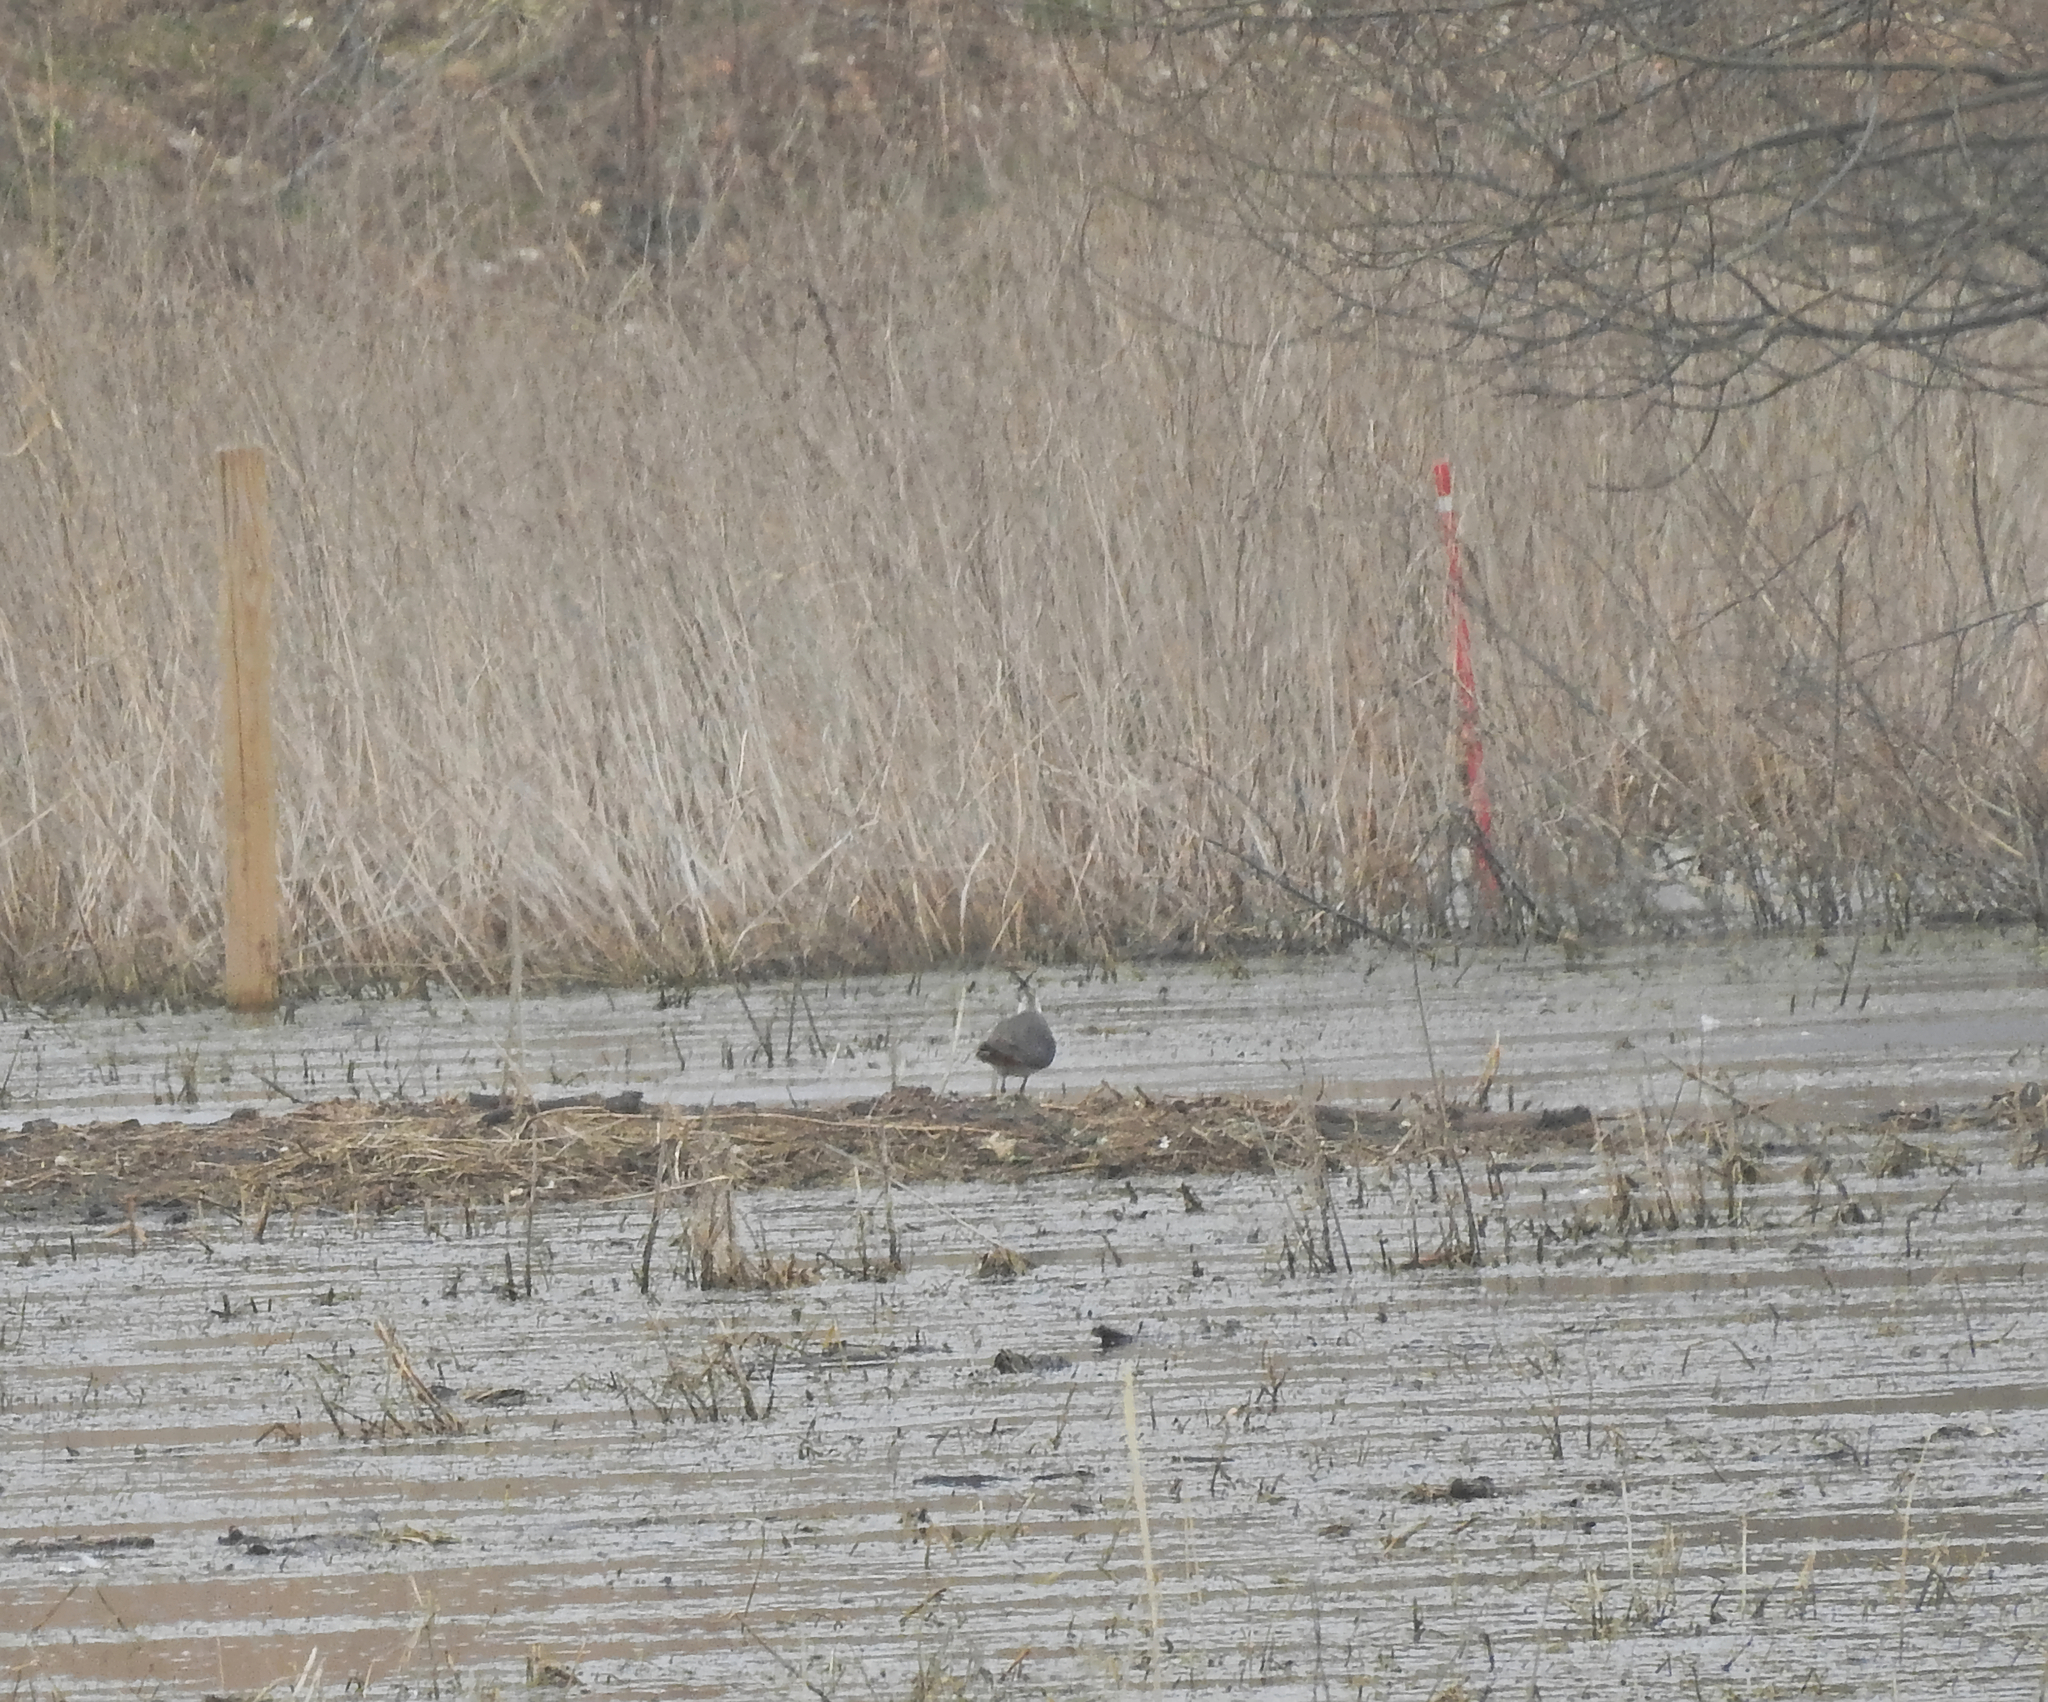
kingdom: Animalia
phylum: Chordata
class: Aves
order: Charadriiformes
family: Charadriidae
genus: Vanellus
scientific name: Vanellus vanellus
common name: Northern lapwing
